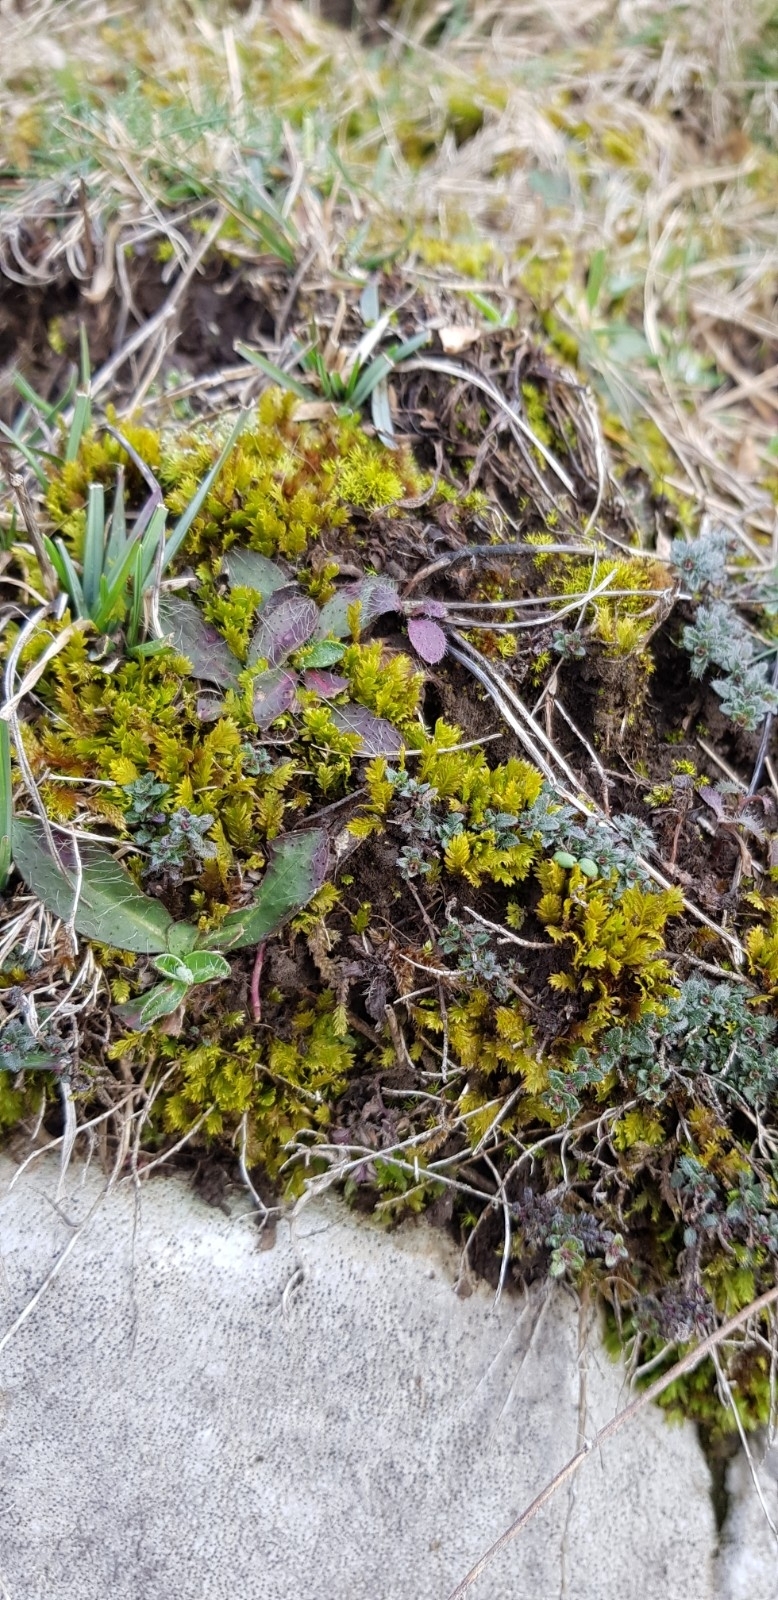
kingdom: Plantae
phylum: Bryophyta
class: Bryopsida
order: Dicranales
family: Fissidentaceae
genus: Fissidens
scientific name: Fissidens dubius
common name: Rock pocket moss
